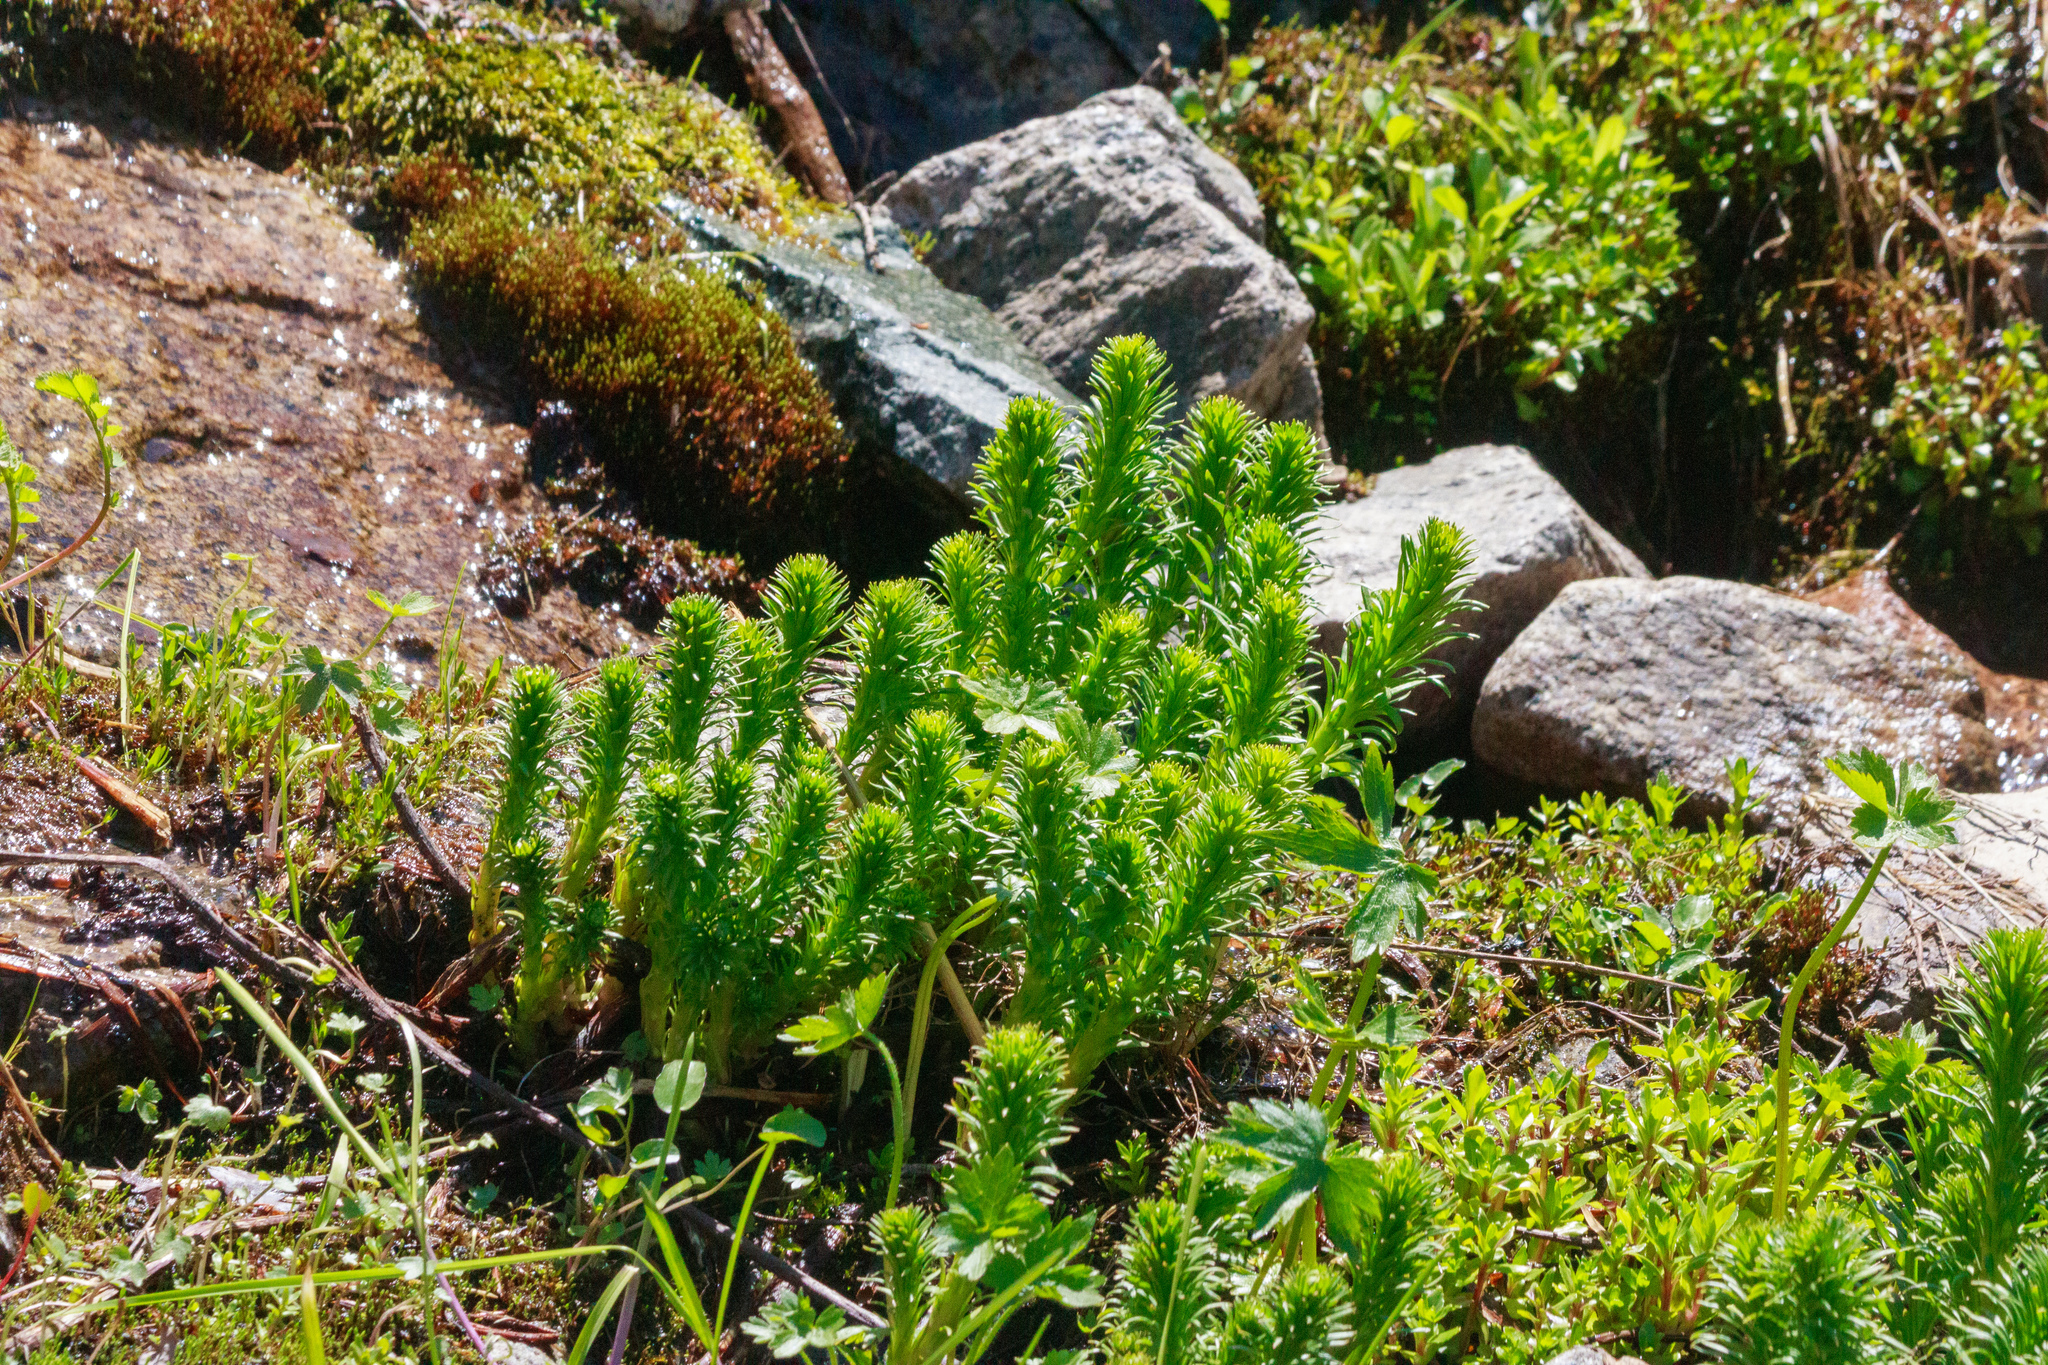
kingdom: Plantae
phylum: Tracheophyta
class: Magnoliopsida
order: Saxifragales
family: Crassulaceae
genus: Rhodiola
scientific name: Rhodiola semenovii
